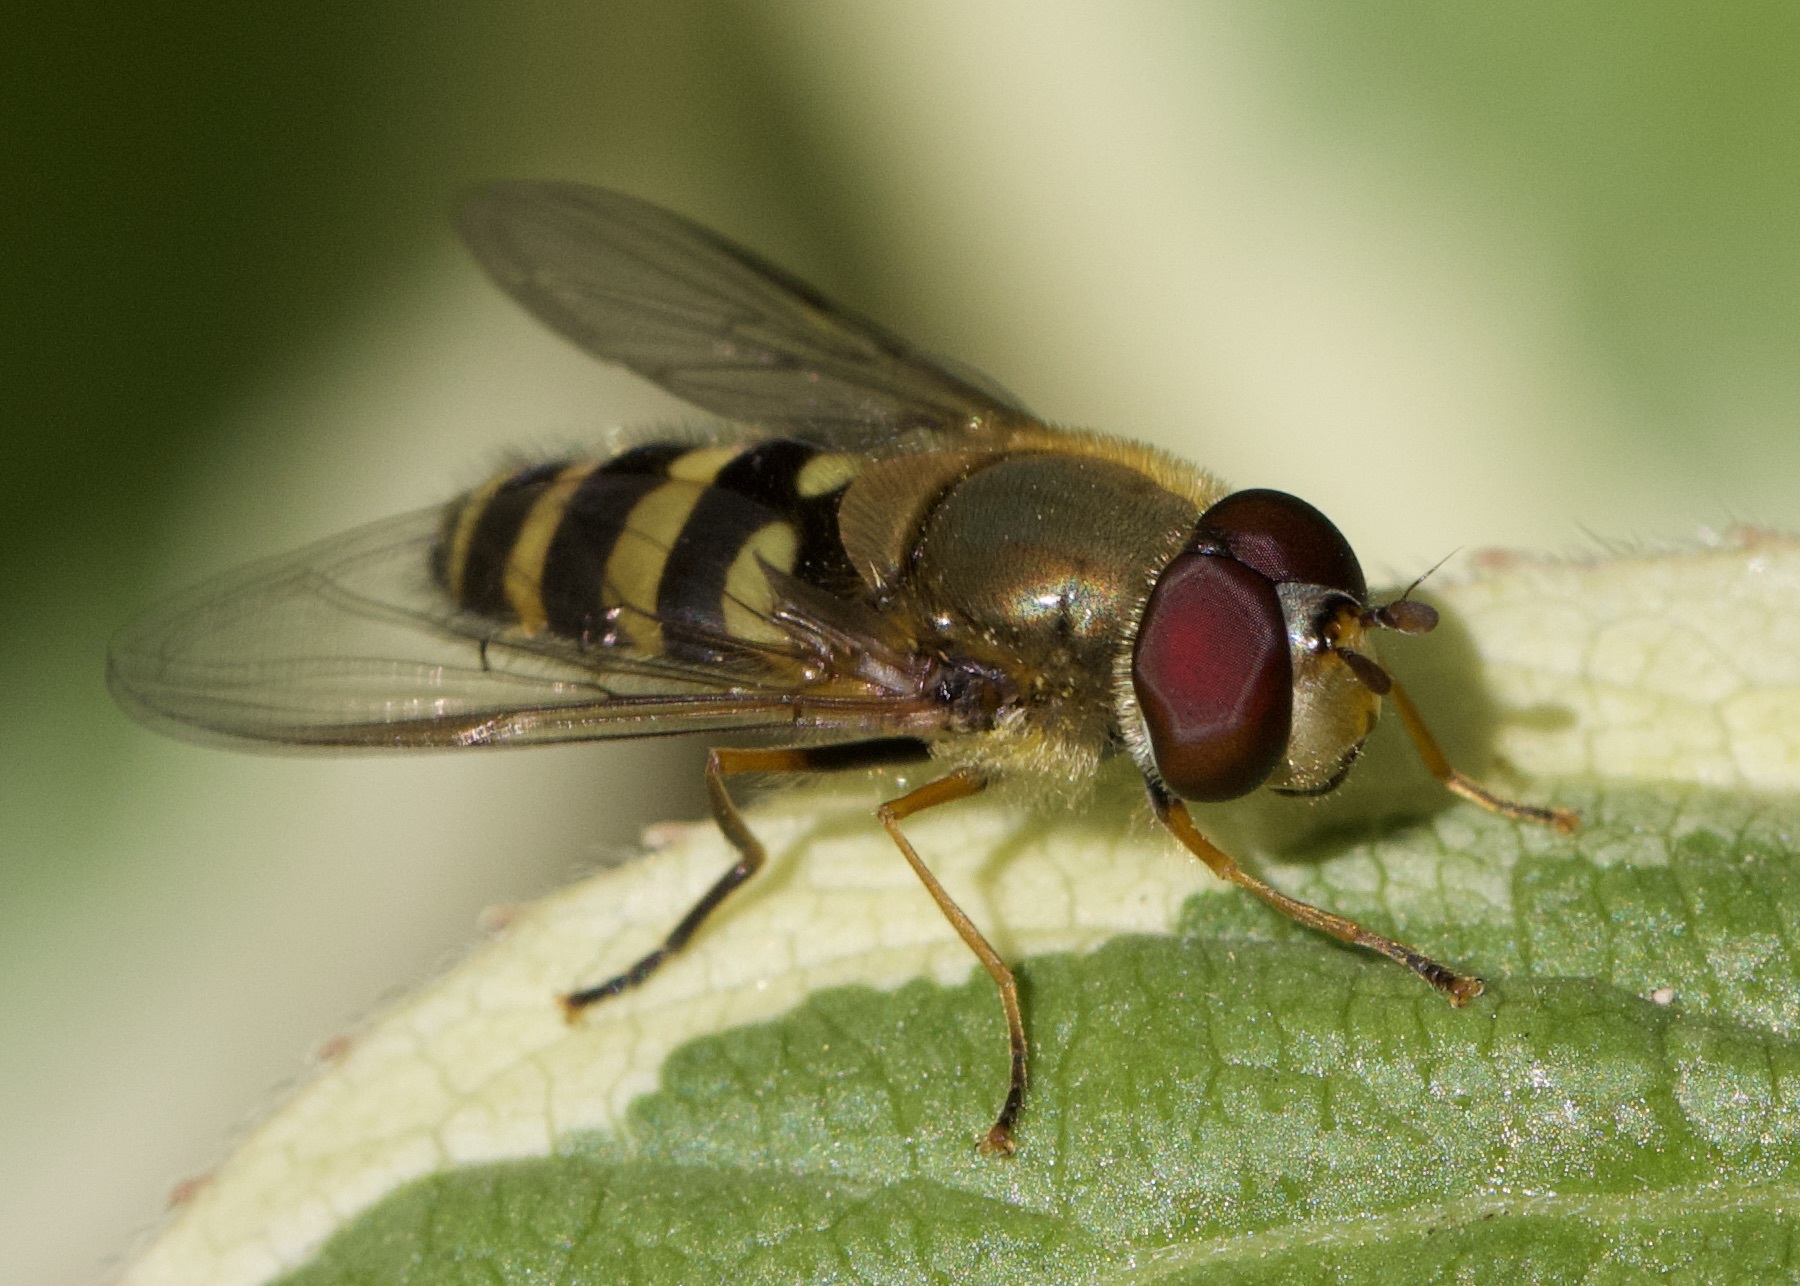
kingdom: Animalia
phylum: Arthropoda
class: Insecta
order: Diptera
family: Syrphidae
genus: Syrphus
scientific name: Syrphus
